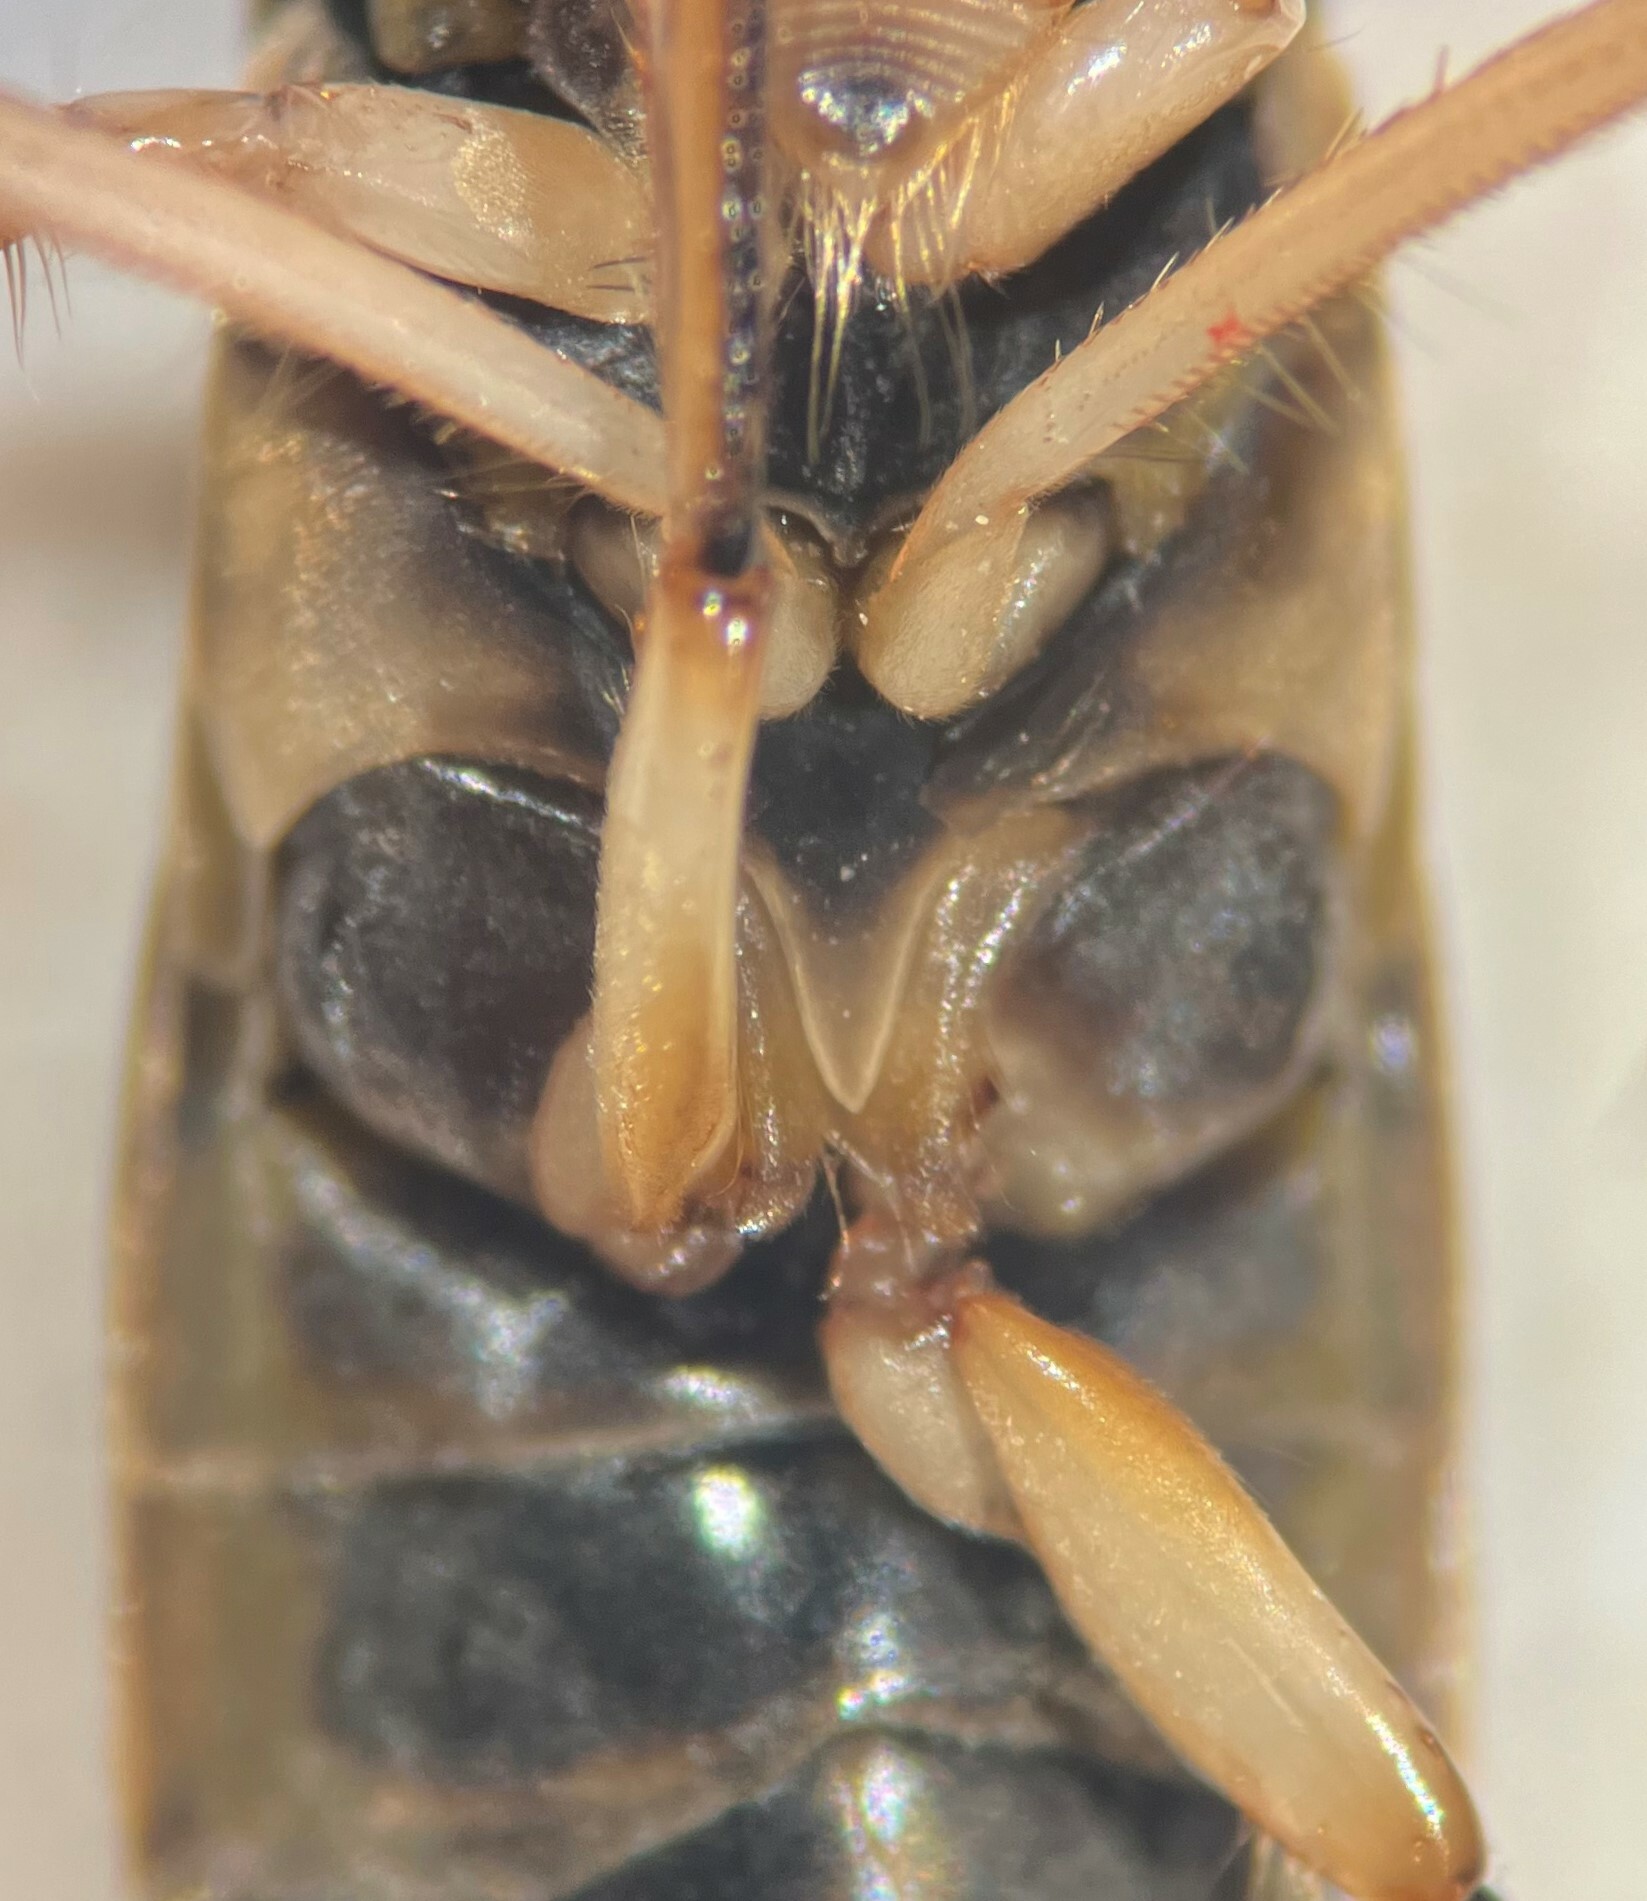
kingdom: Animalia
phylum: Arthropoda
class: Insecta
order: Hemiptera
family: Corixidae
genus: Hesperocorixa
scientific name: Hesperocorixa vulgaris
